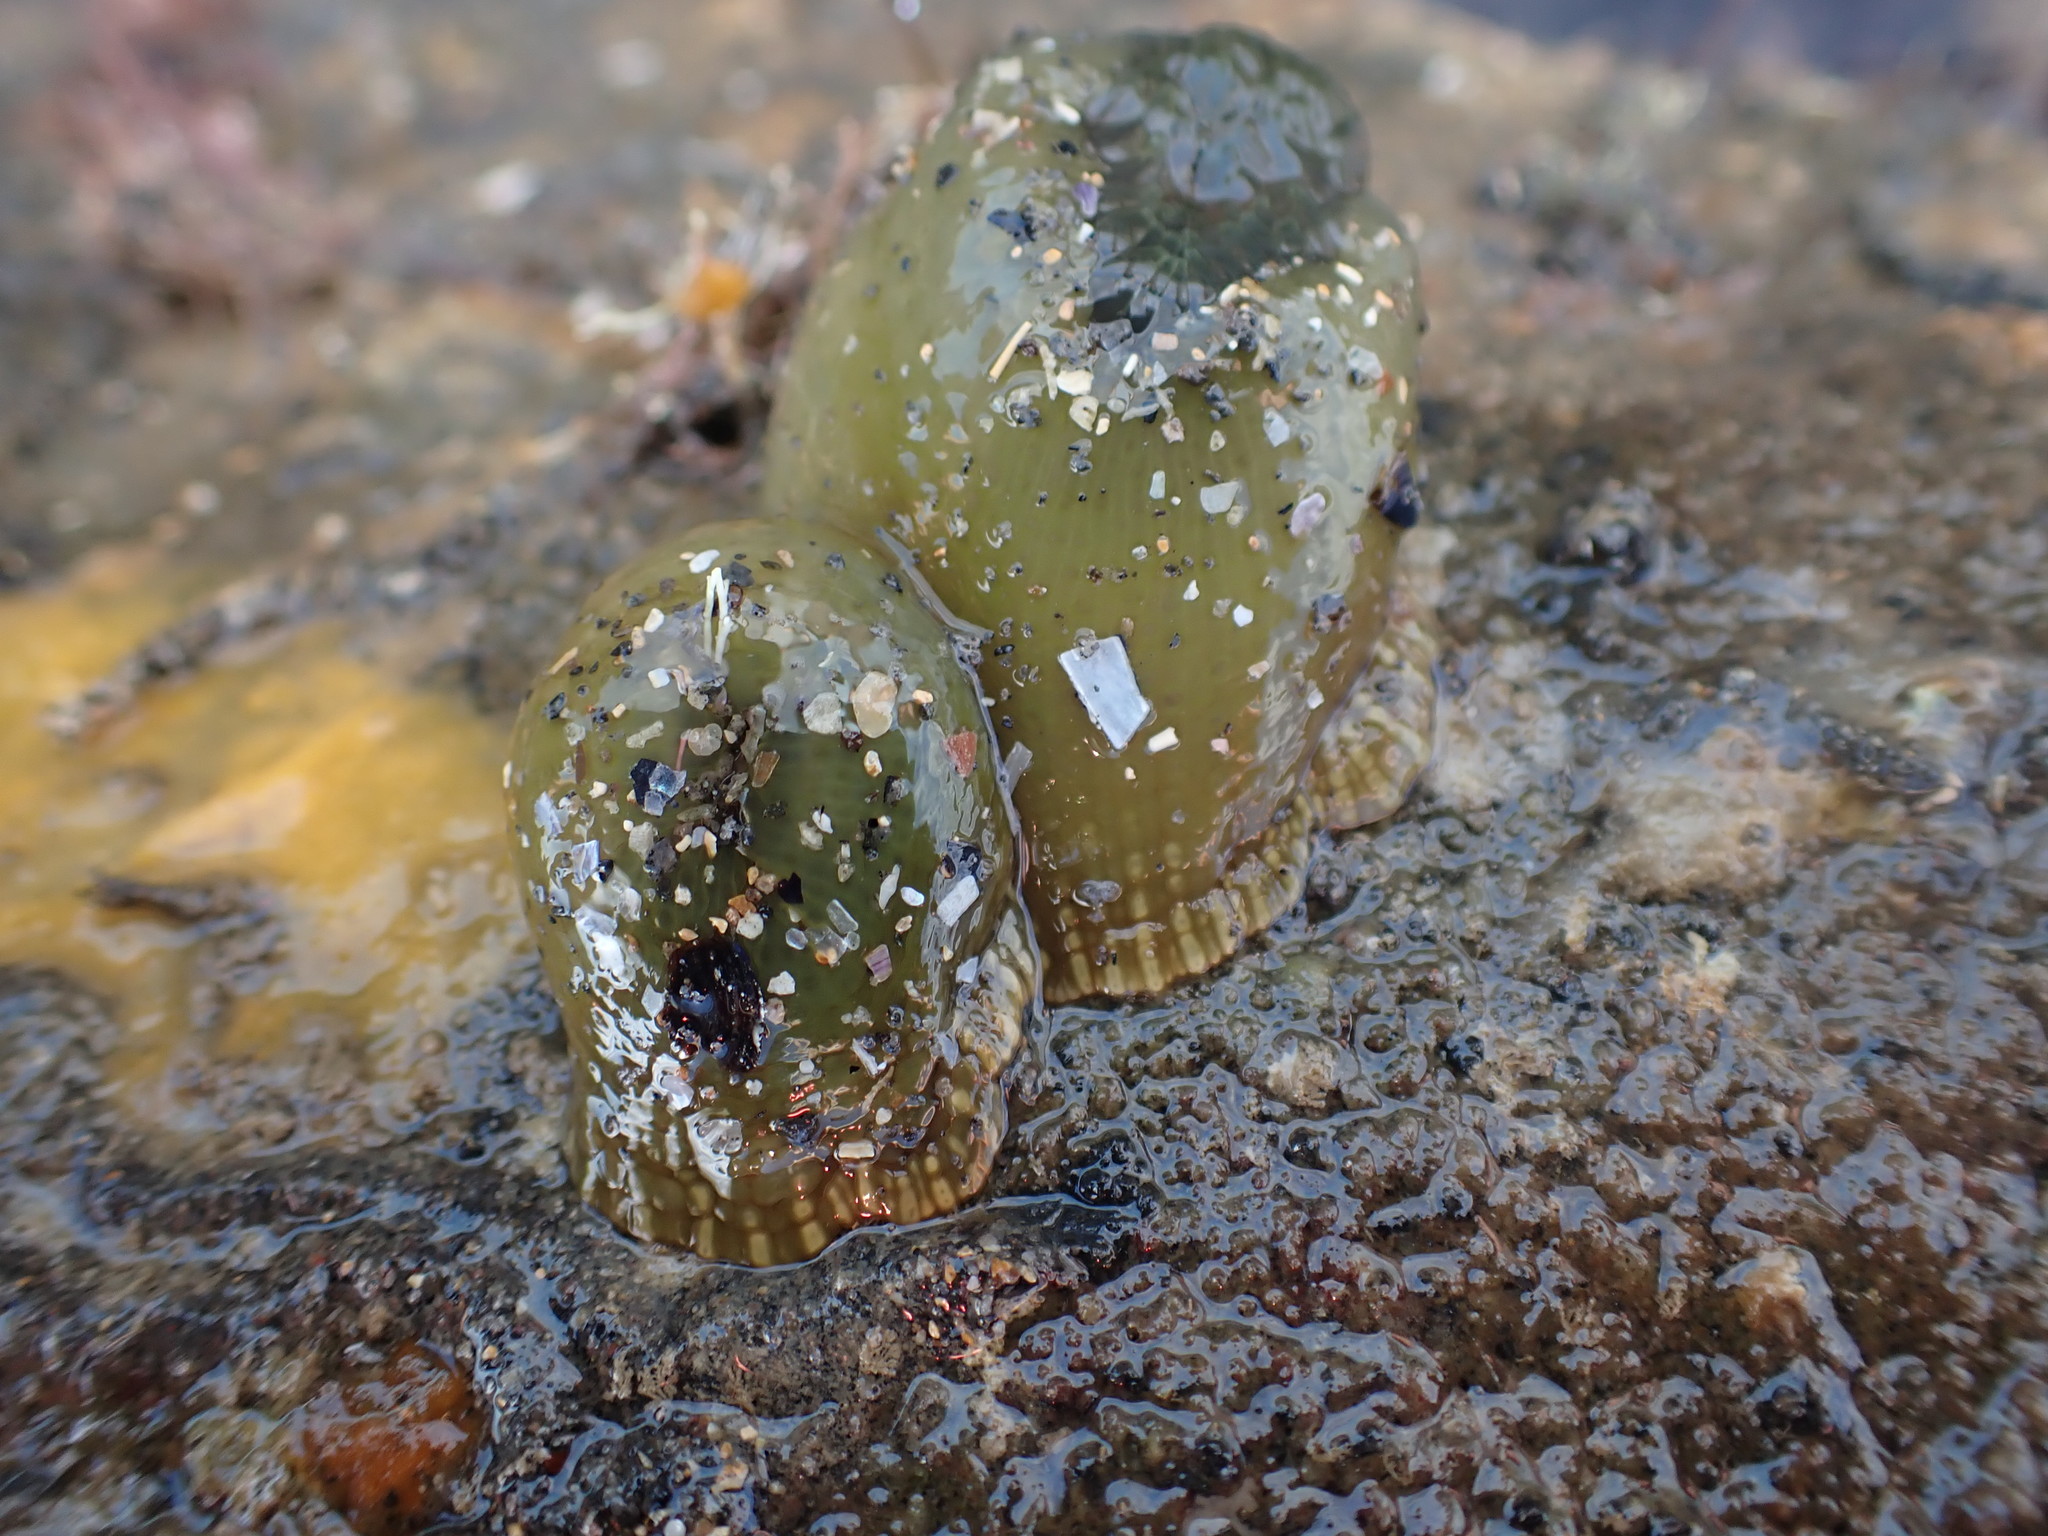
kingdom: Animalia
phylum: Cnidaria
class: Anthozoa
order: Actiniaria
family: Actiniidae
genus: Isactinia
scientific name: Isactinia olivacea
